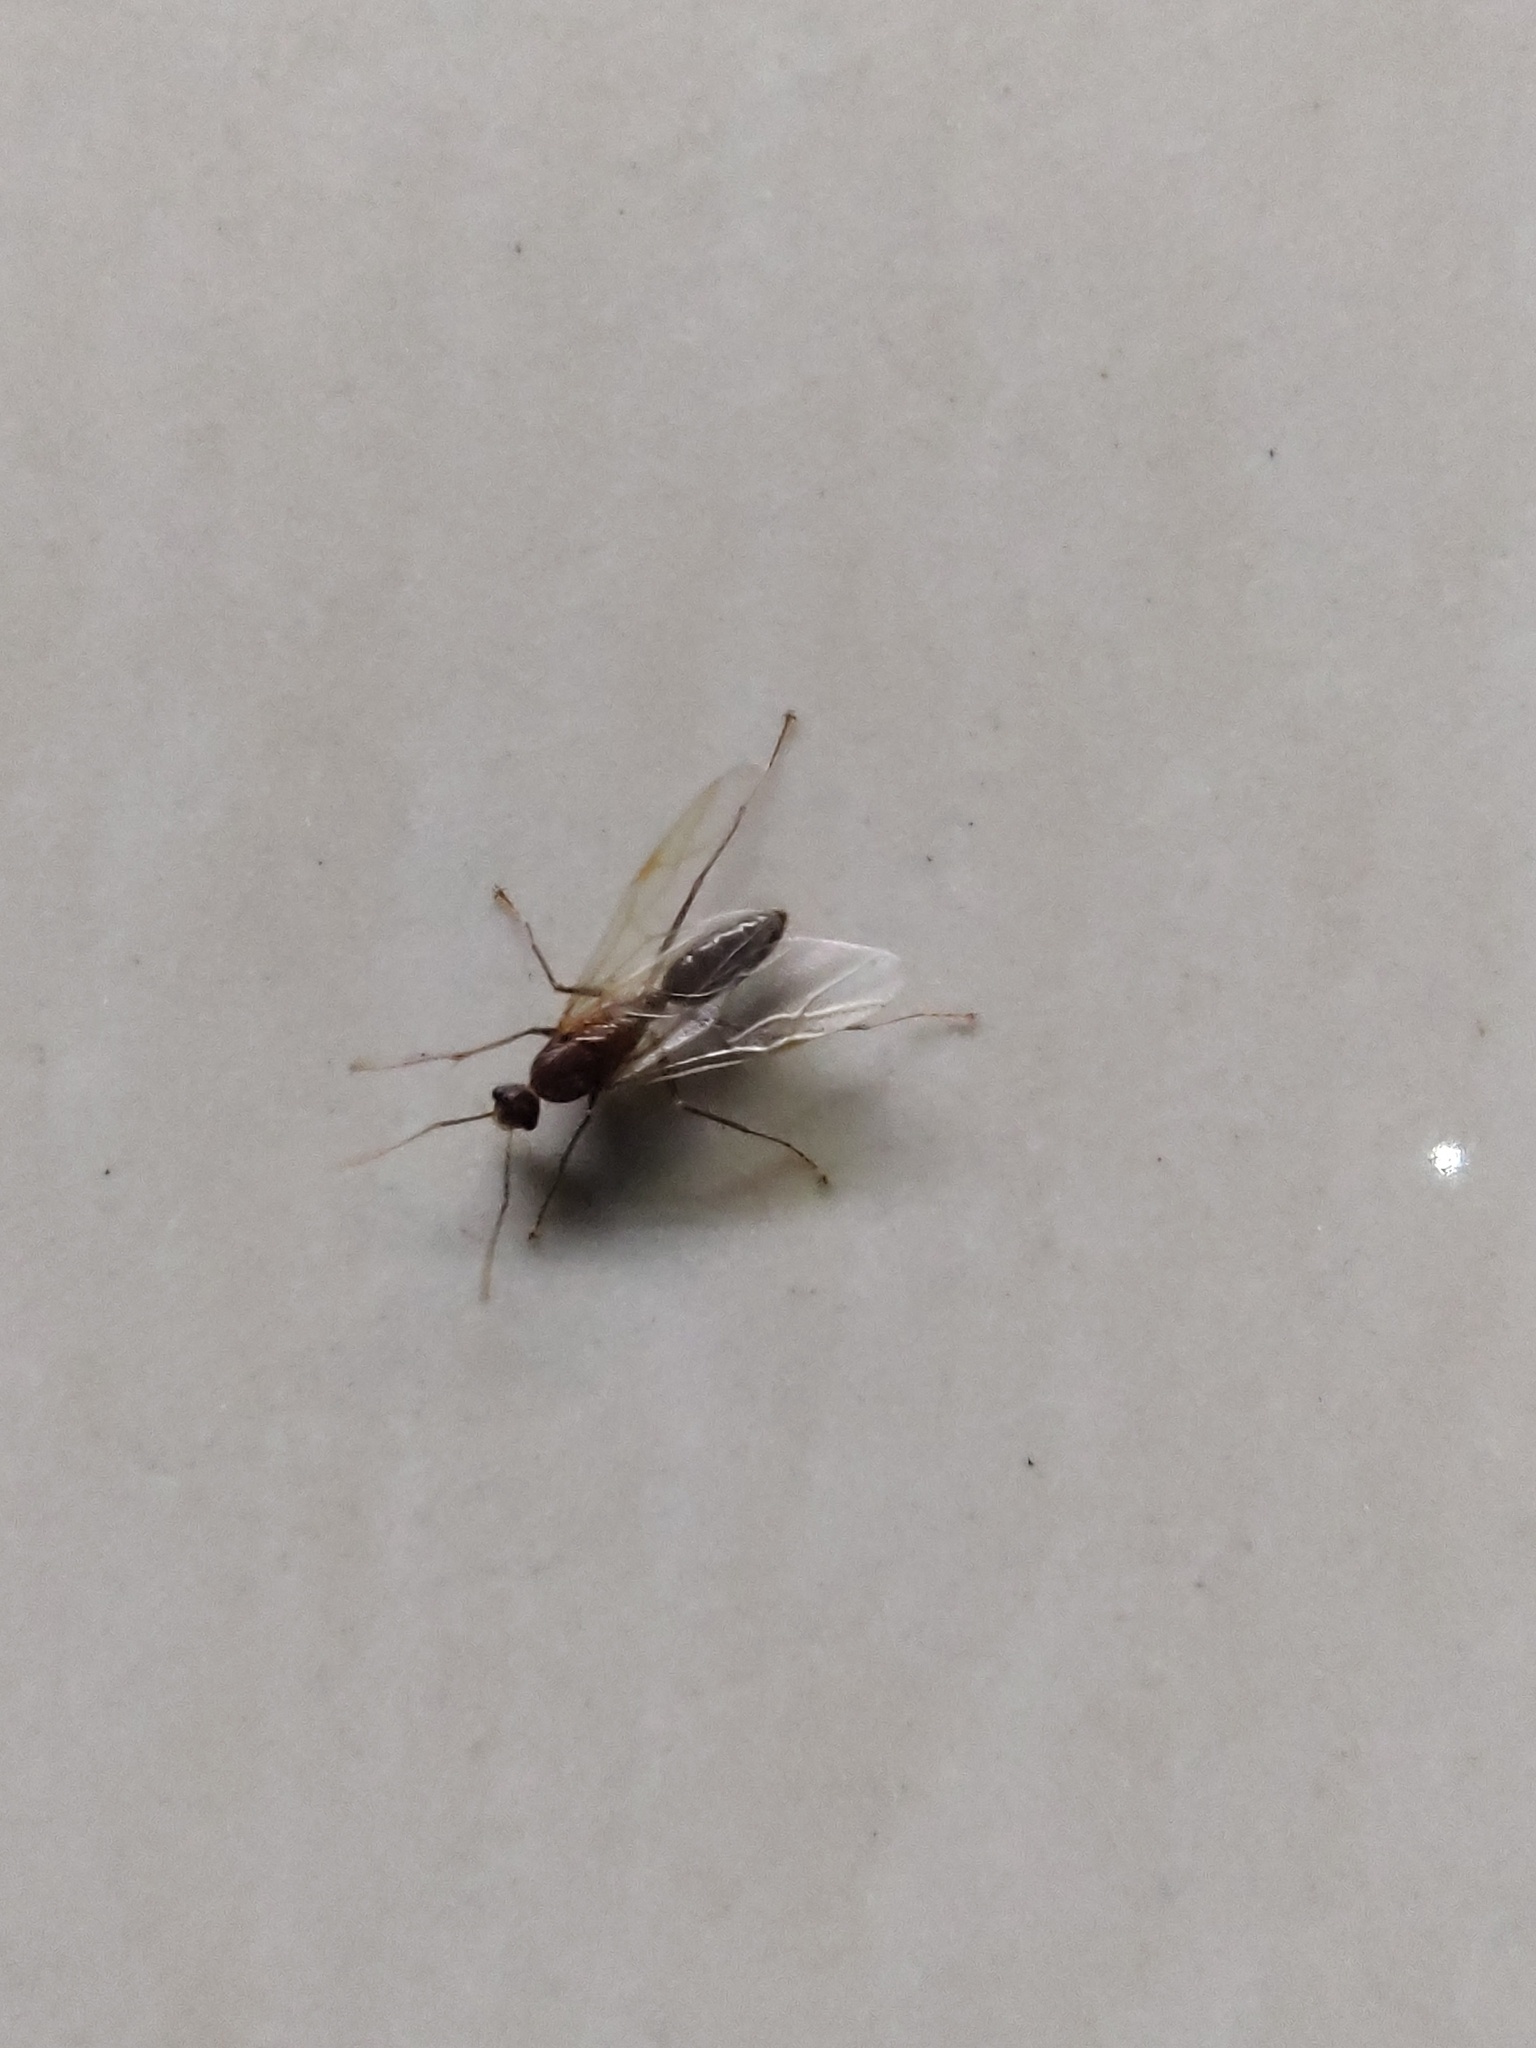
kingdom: Animalia
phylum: Arthropoda
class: Insecta
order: Hymenoptera
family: Formicidae
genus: Paratrechina
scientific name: Paratrechina longicornis
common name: Longhorned crazy ant
